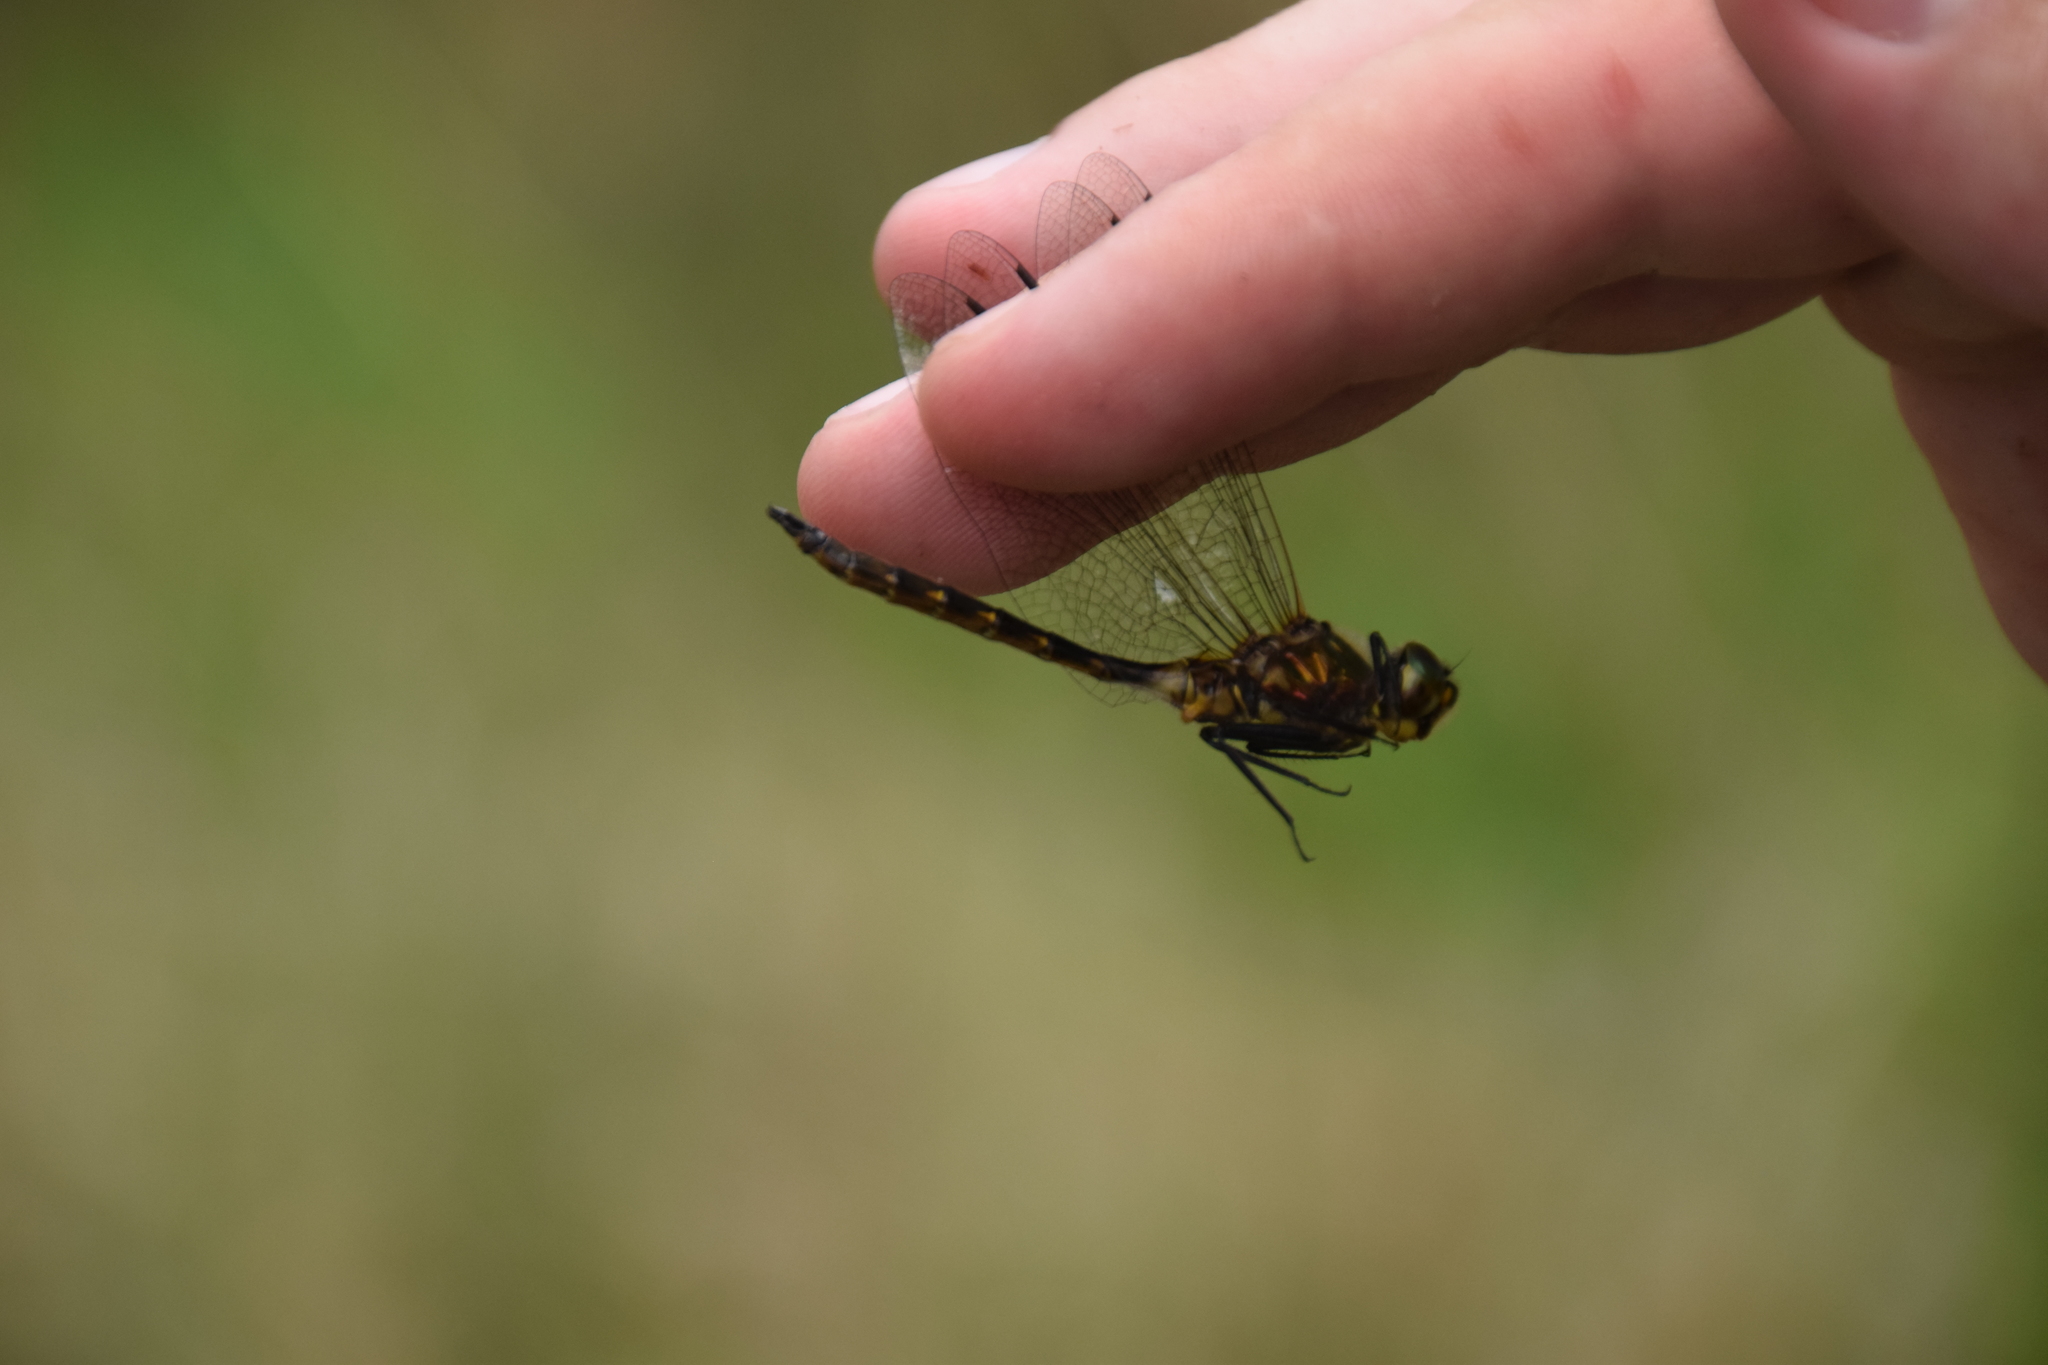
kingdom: Animalia
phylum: Arthropoda
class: Insecta
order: Odonata
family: Corduliidae
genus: Somatochlora
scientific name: Somatochlora flavomaculata
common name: Yellow-spotted emerald
